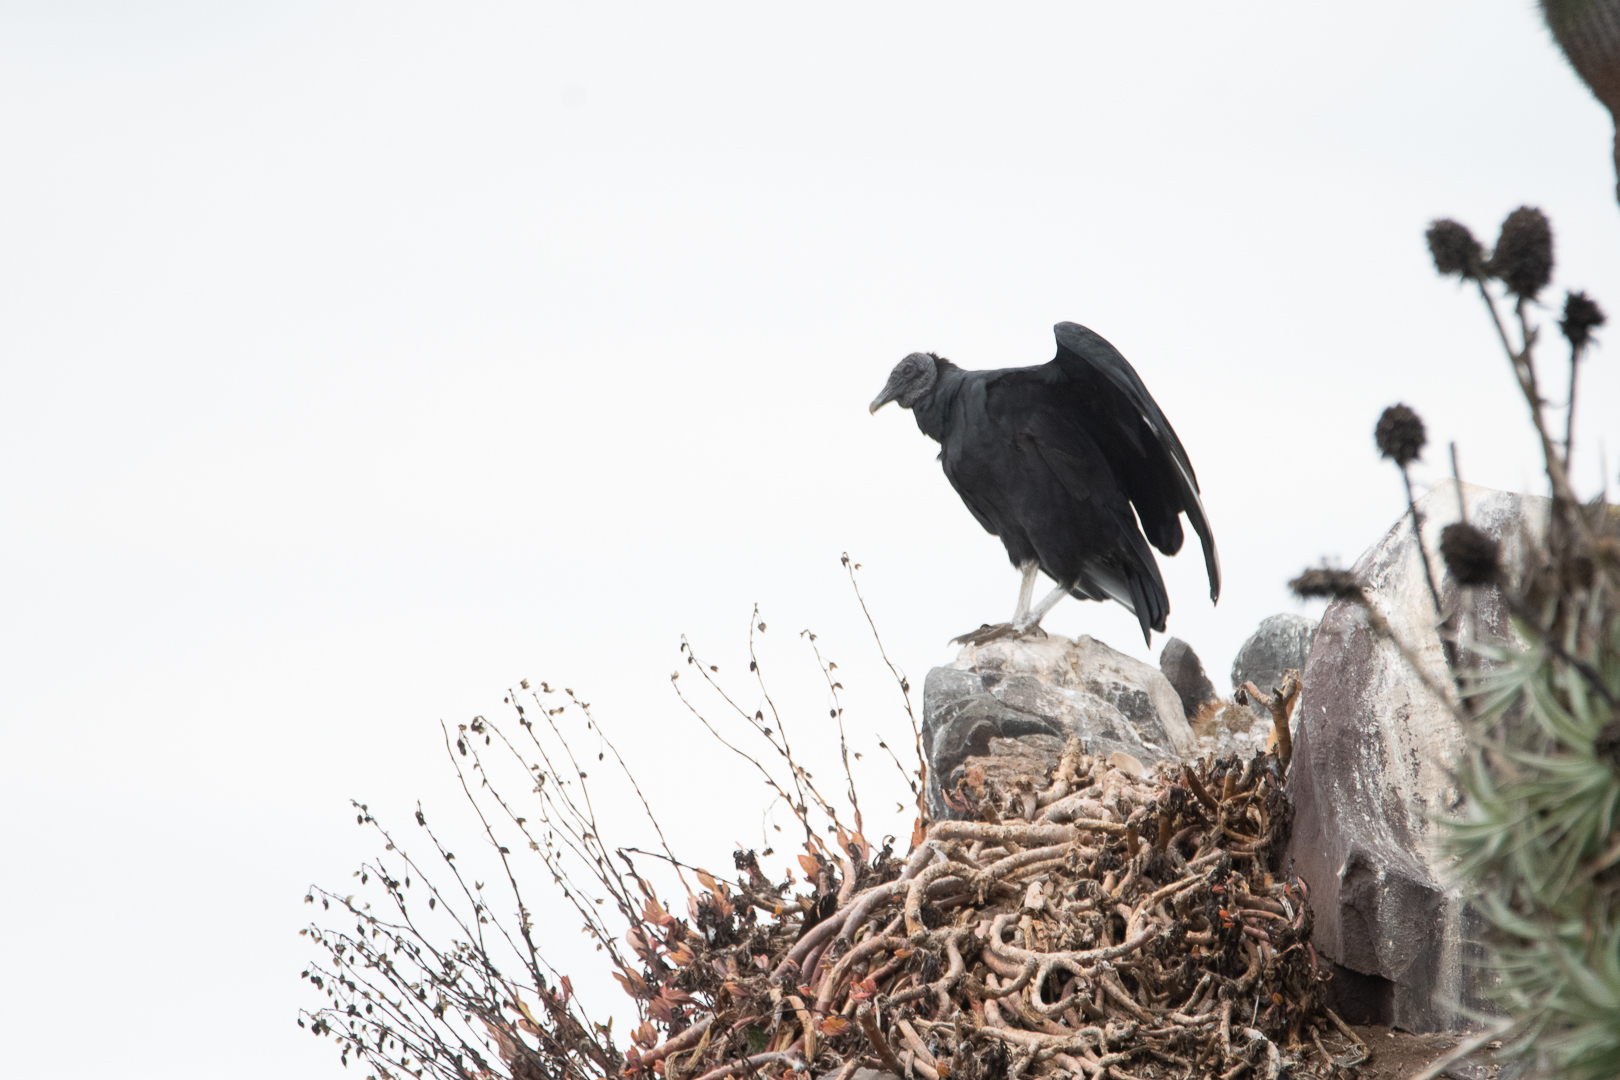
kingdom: Animalia
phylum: Chordata
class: Aves
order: Accipitriformes
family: Cathartidae
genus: Coragyps
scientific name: Coragyps atratus
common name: Black vulture
